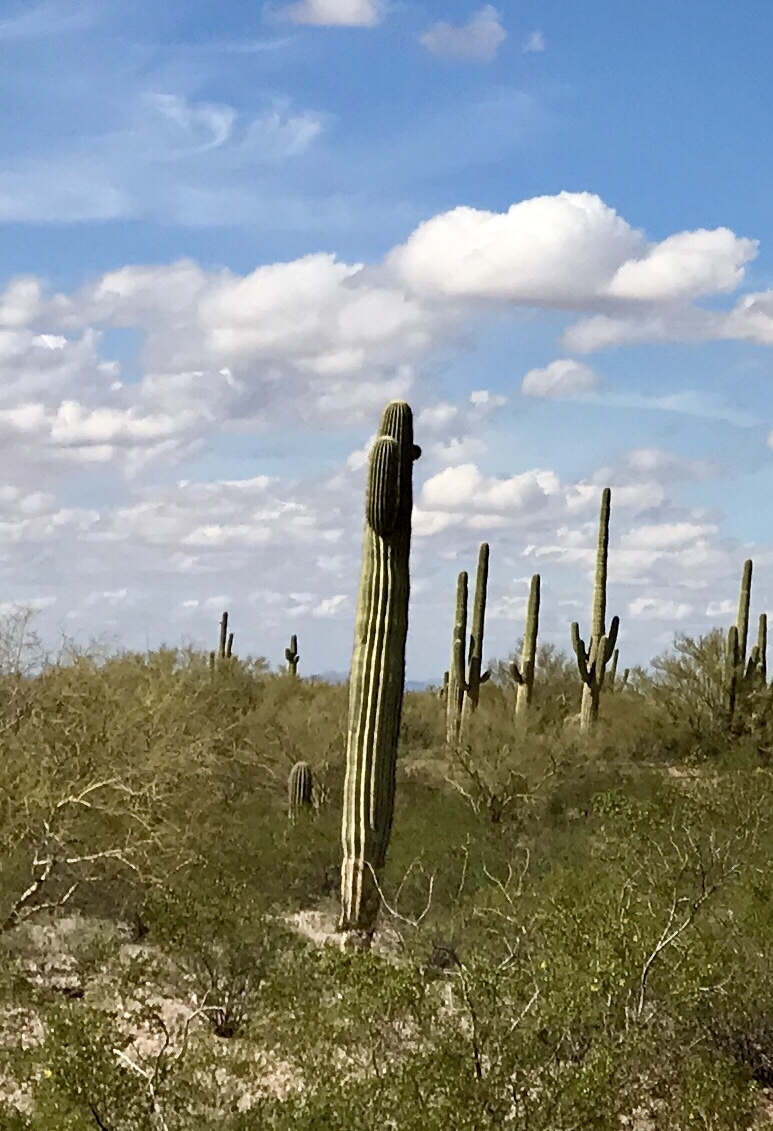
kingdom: Plantae
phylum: Tracheophyta
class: Magnoliopsida
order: Caryophyllales
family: Cactaceae
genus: Carnegiea
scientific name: Carnegiea gigantea
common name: Saguaro
